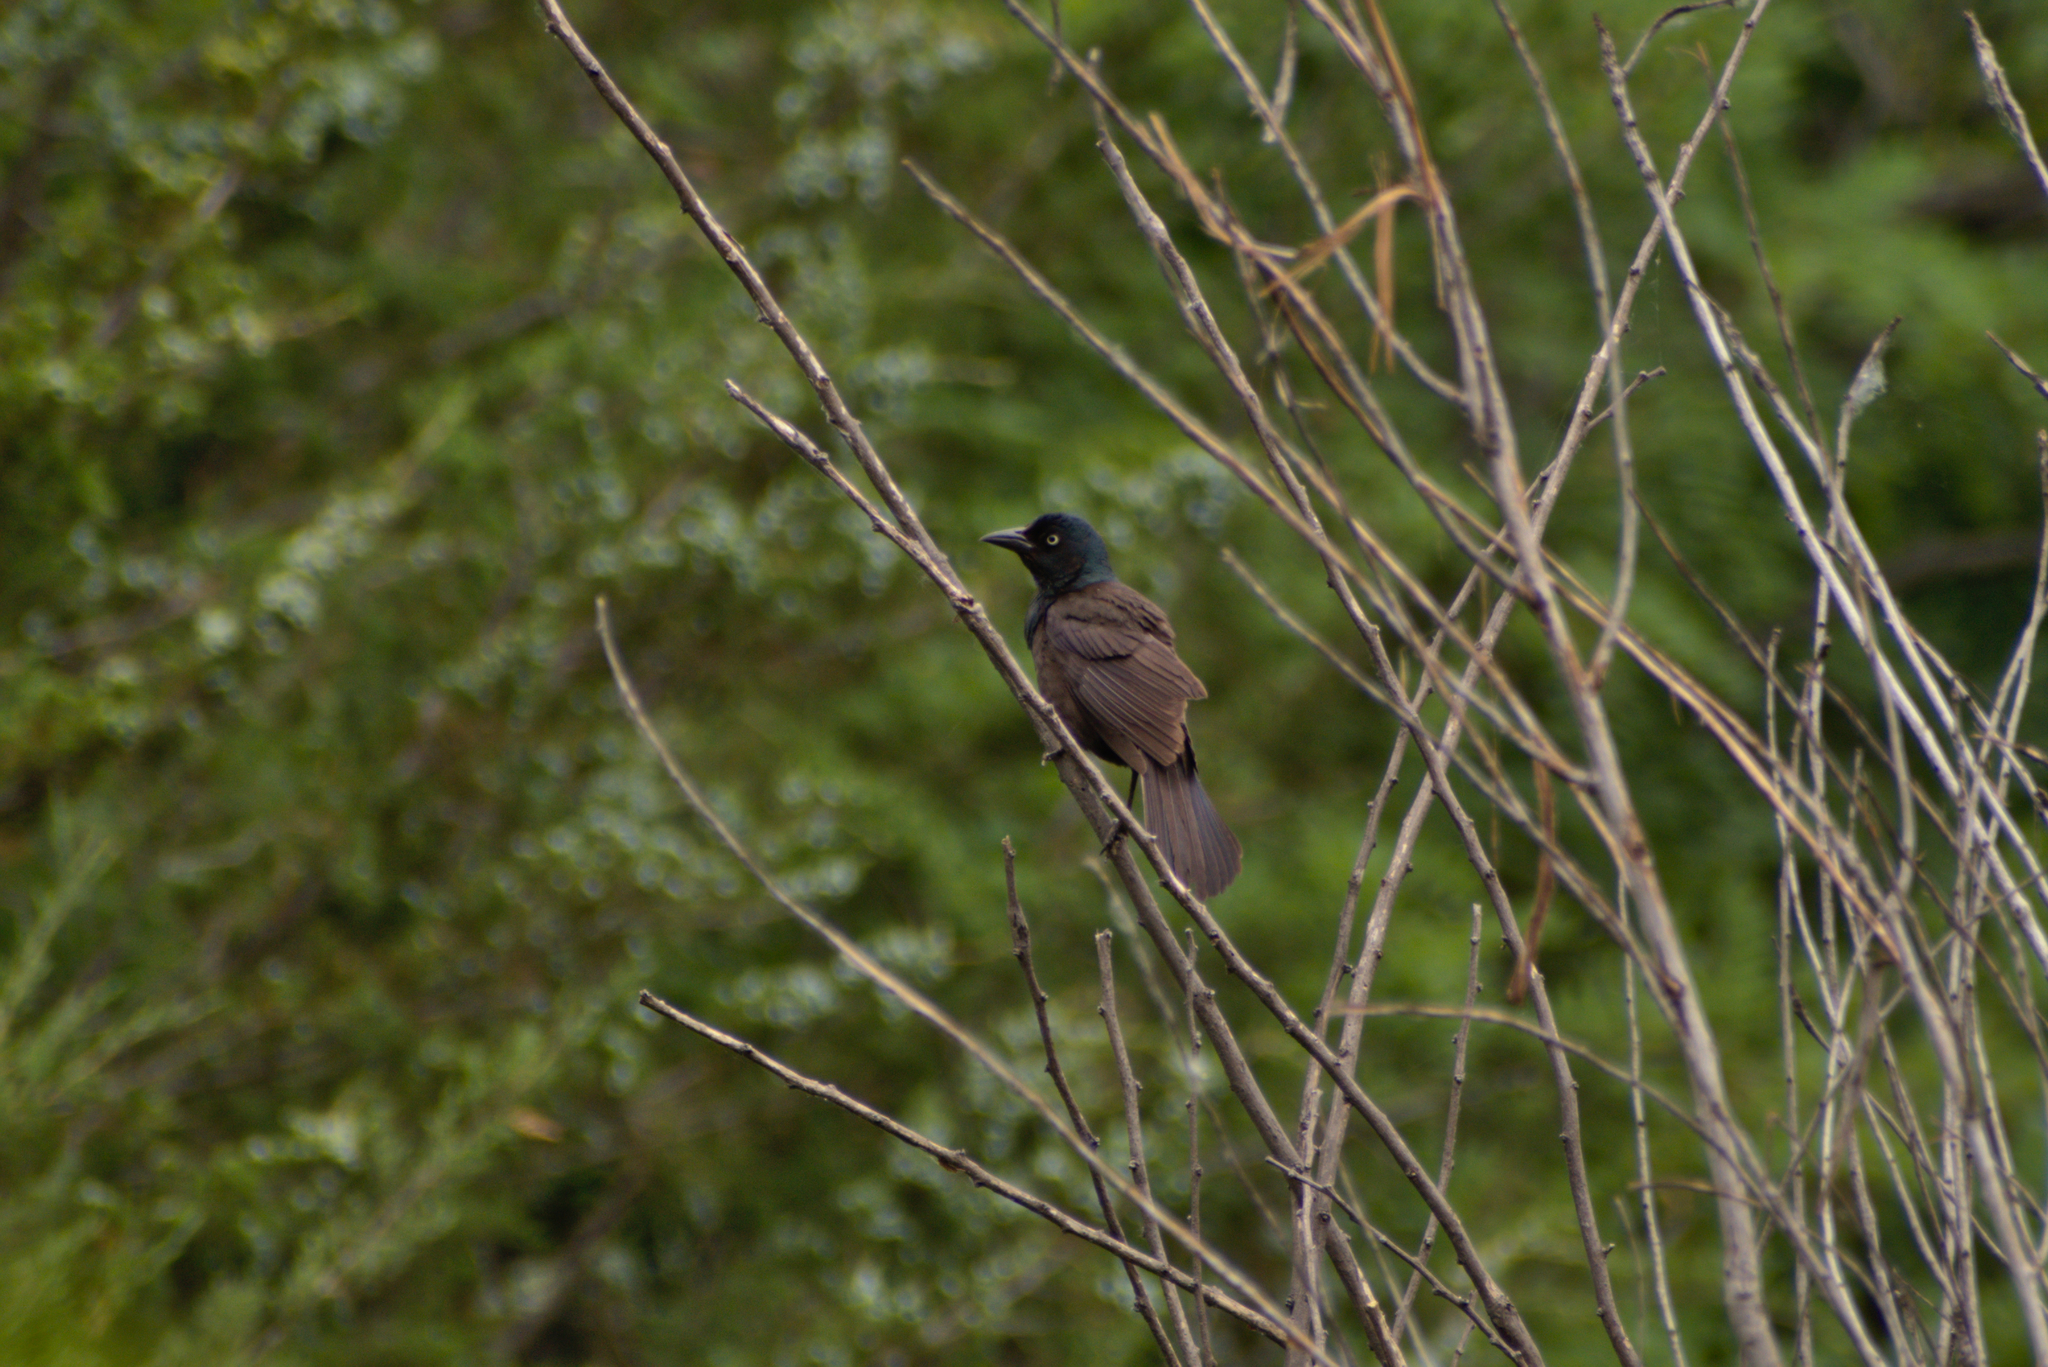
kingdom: Animalia
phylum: Chordata
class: Aves
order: Passeriformes
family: Icteridae
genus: Quiscalus
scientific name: Quiscalus quiscula
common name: Common grackle
